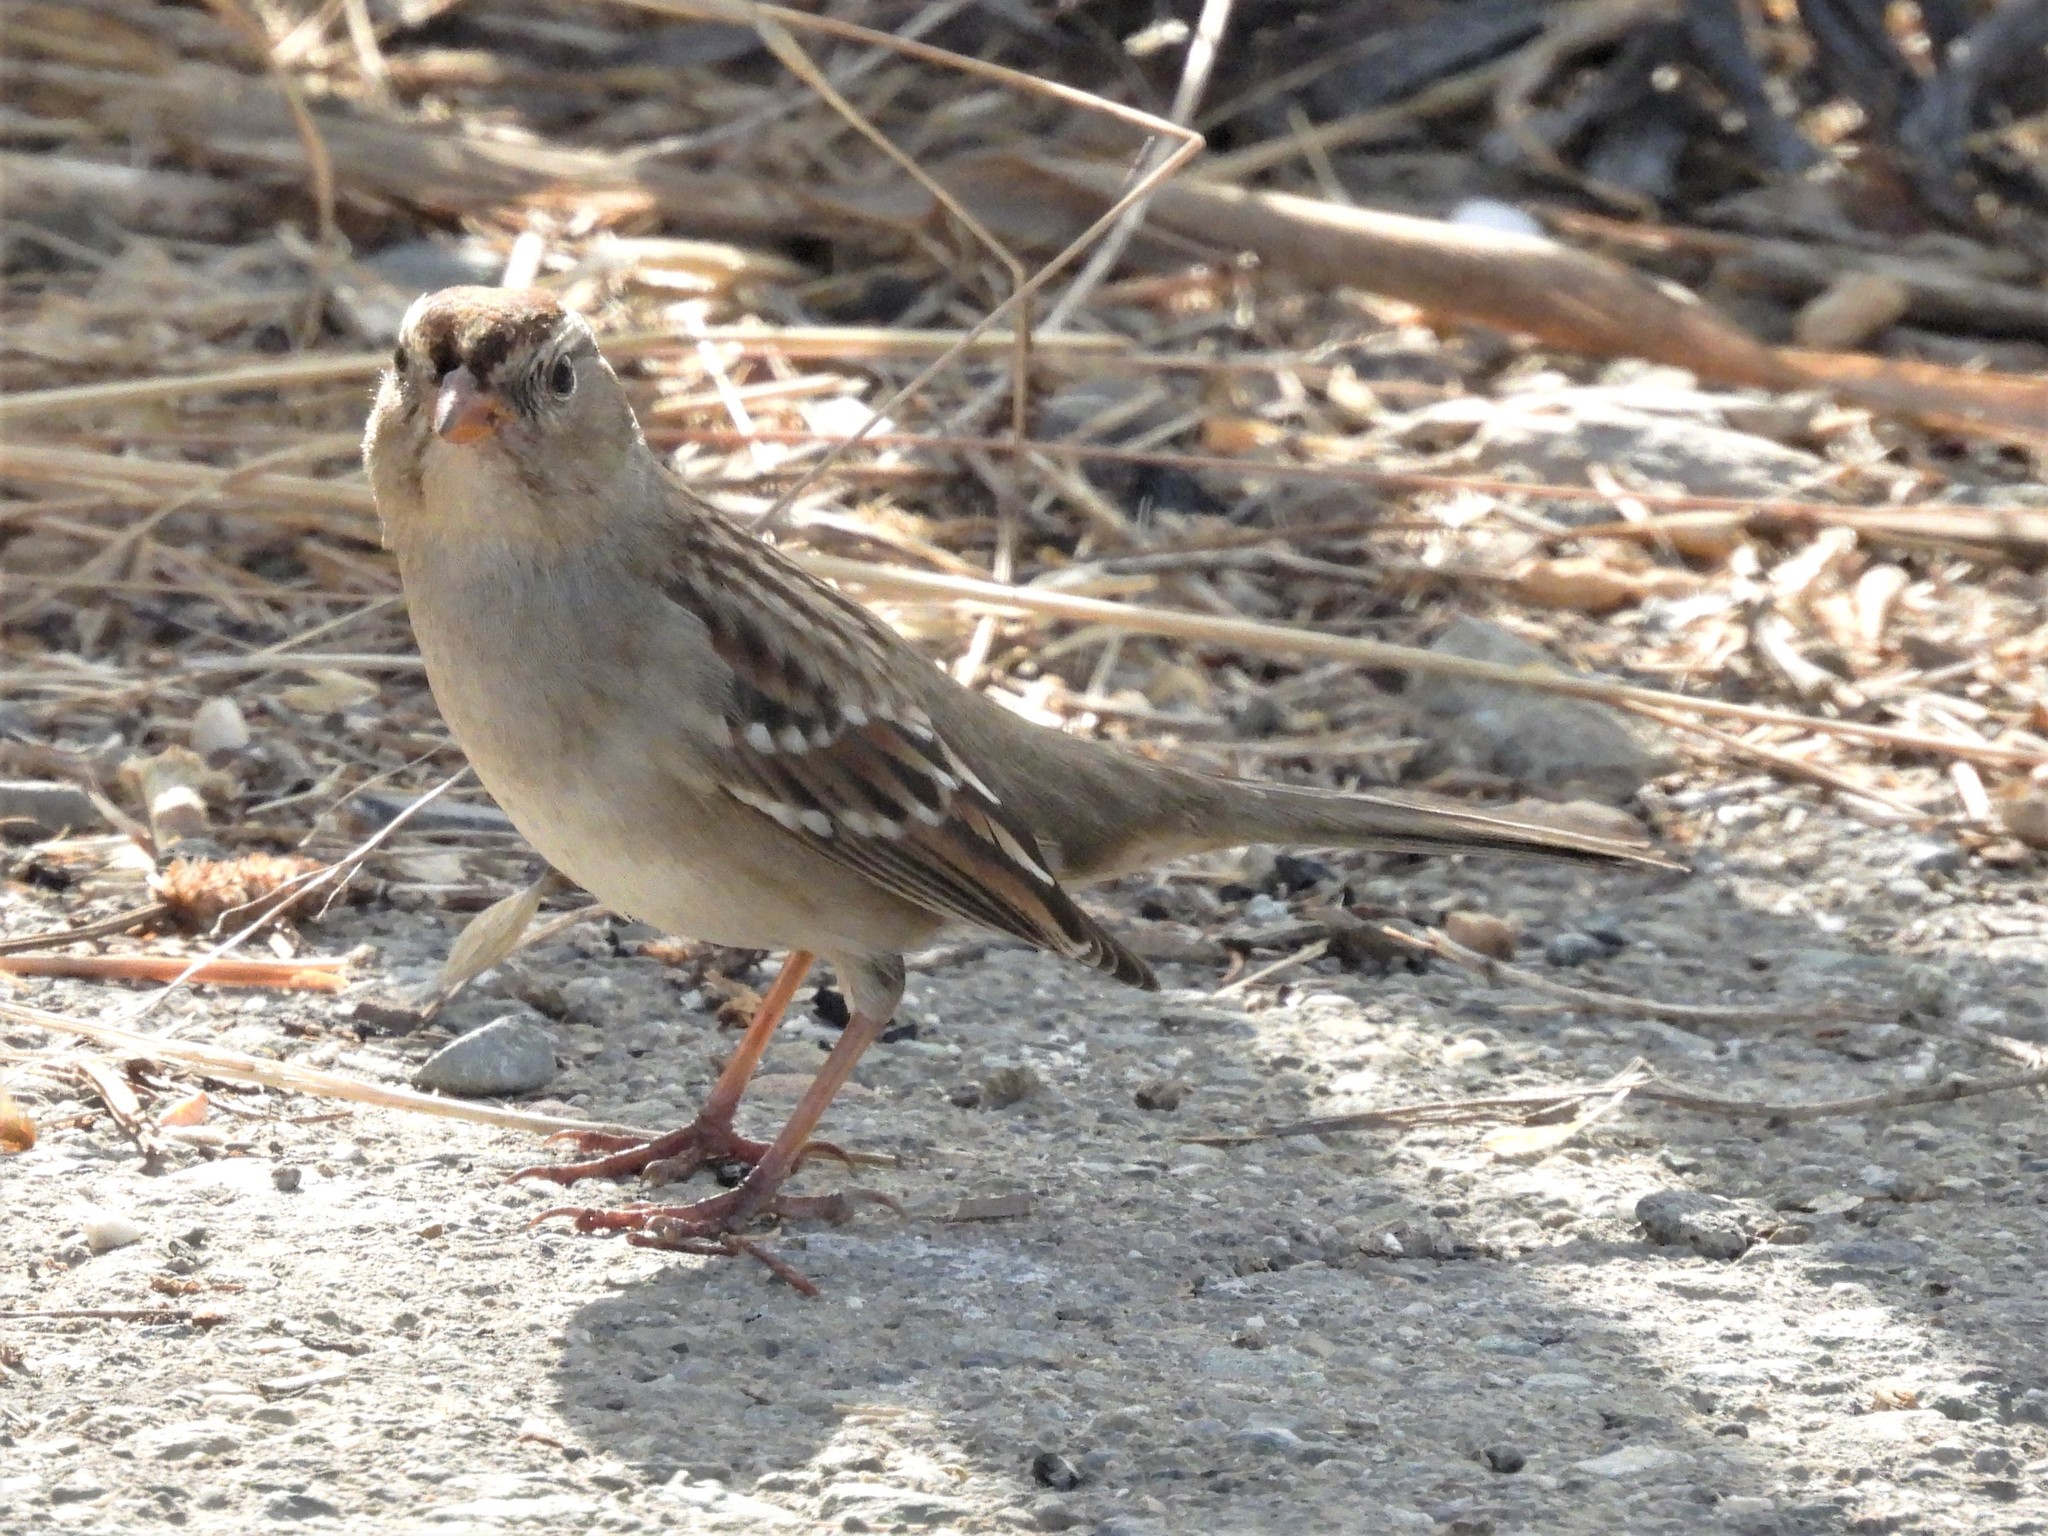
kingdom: Animalia
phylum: Chordata
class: Aves
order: Passeriformes
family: Passerellidae
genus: Zonotrichia
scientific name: Zonotrichia leucophrys
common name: White-crowned sparrow
